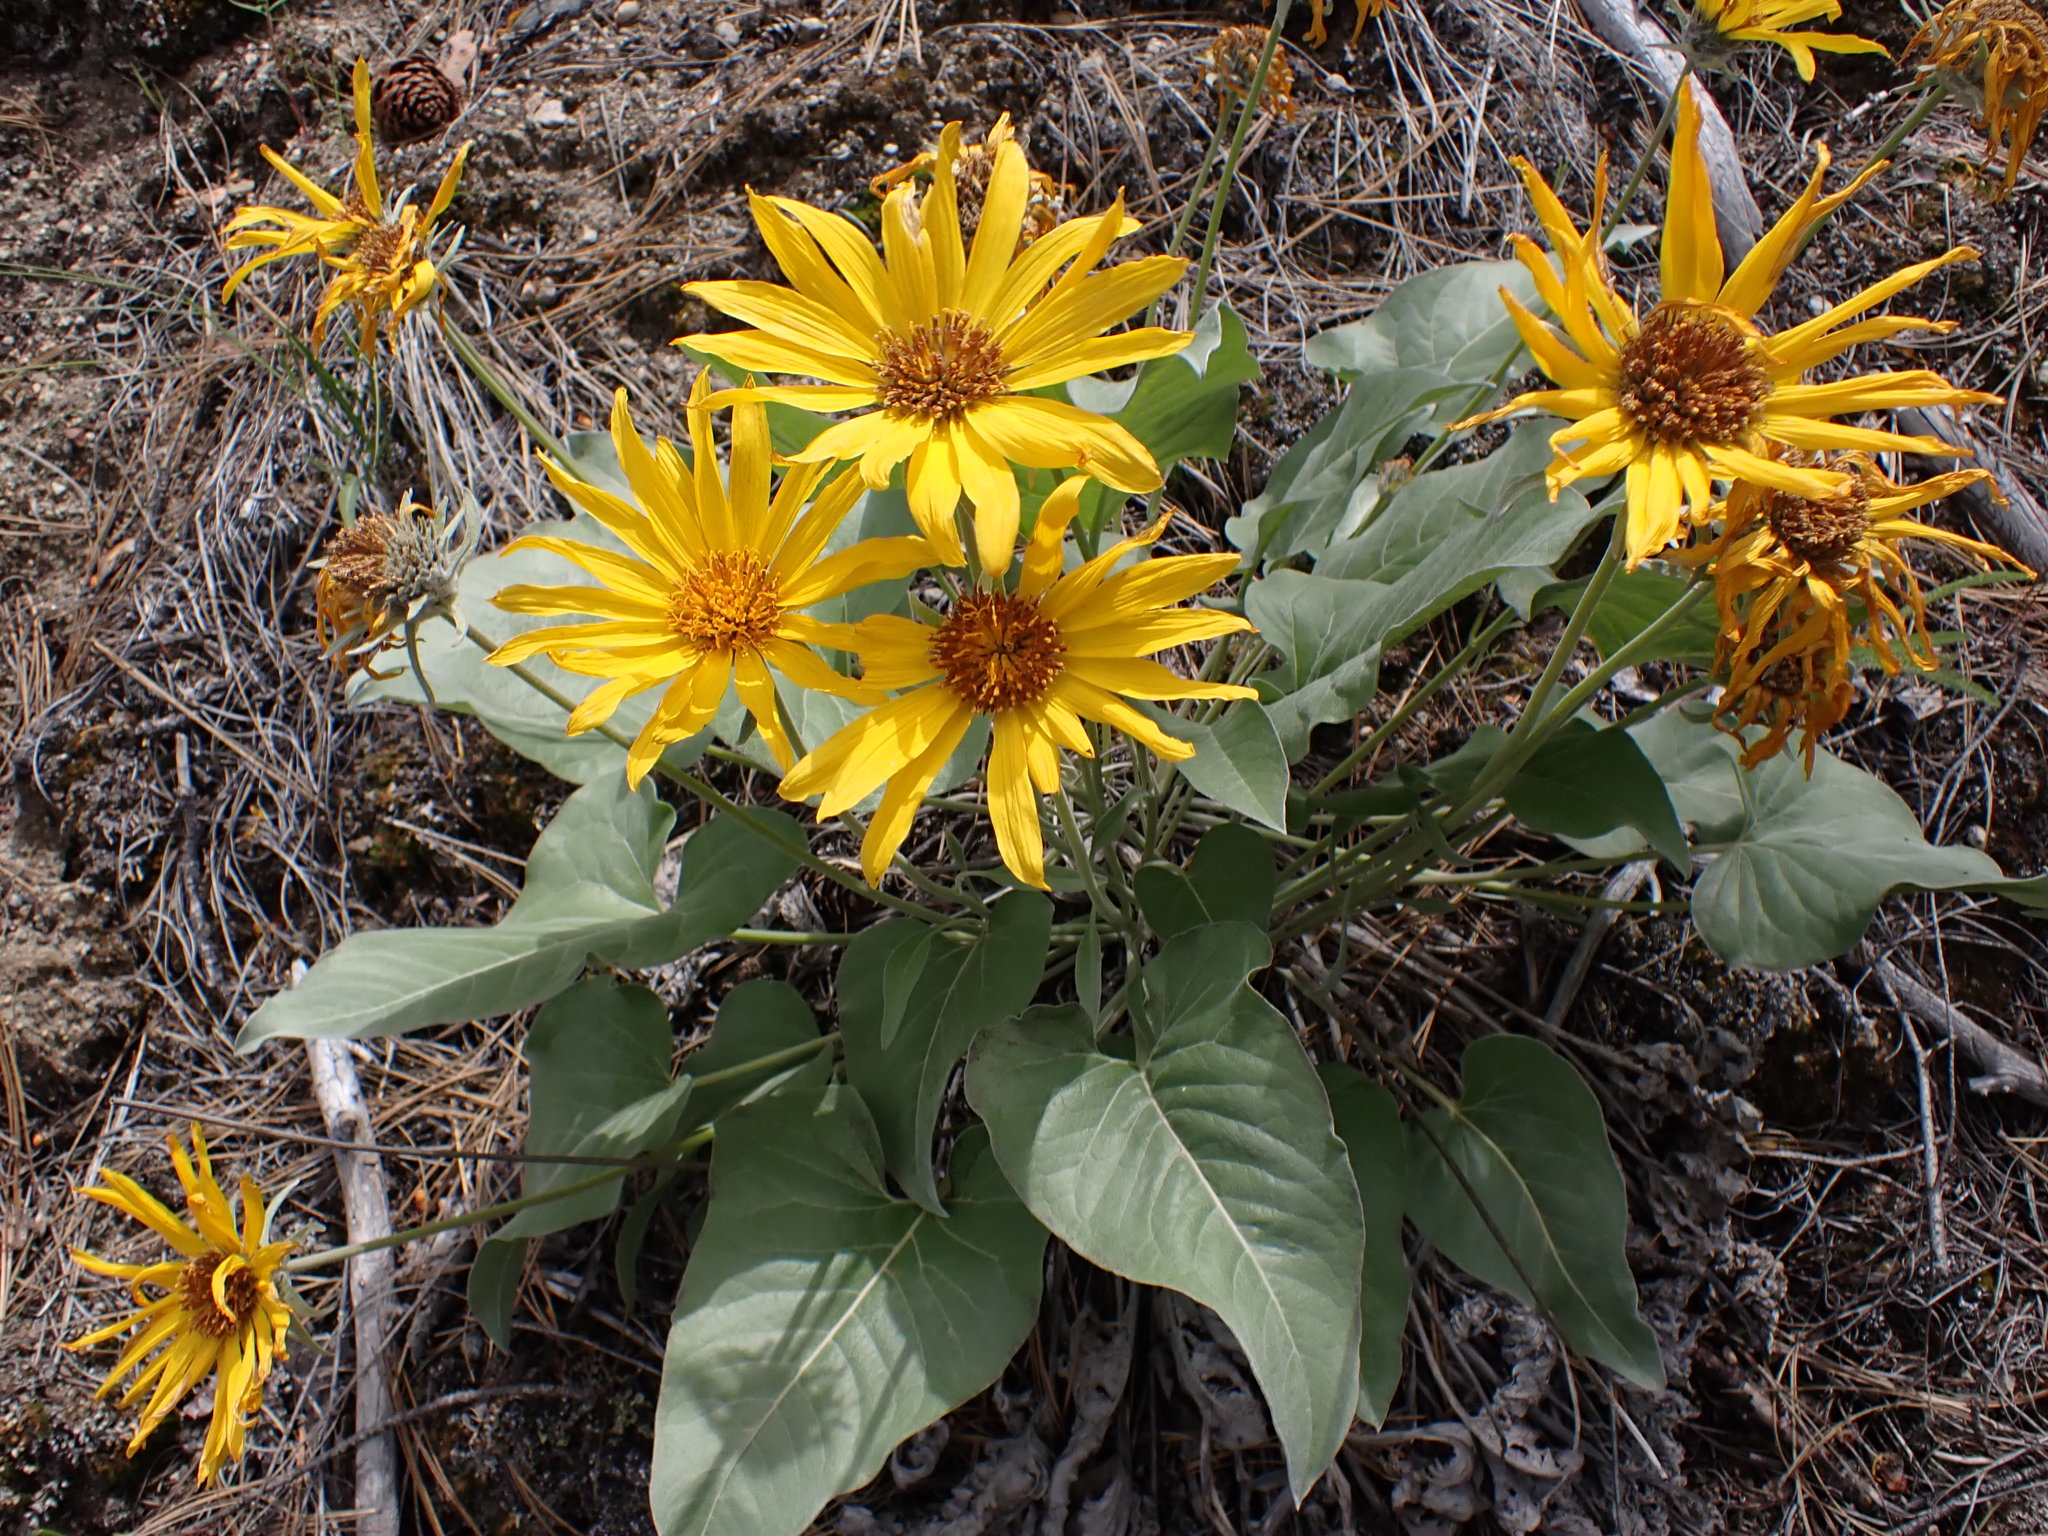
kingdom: Plantae
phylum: Tracheophyta
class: Magnoliopsida
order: Asterales
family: Asteraceae
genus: Wyethia
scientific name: Wyethia sagittata
